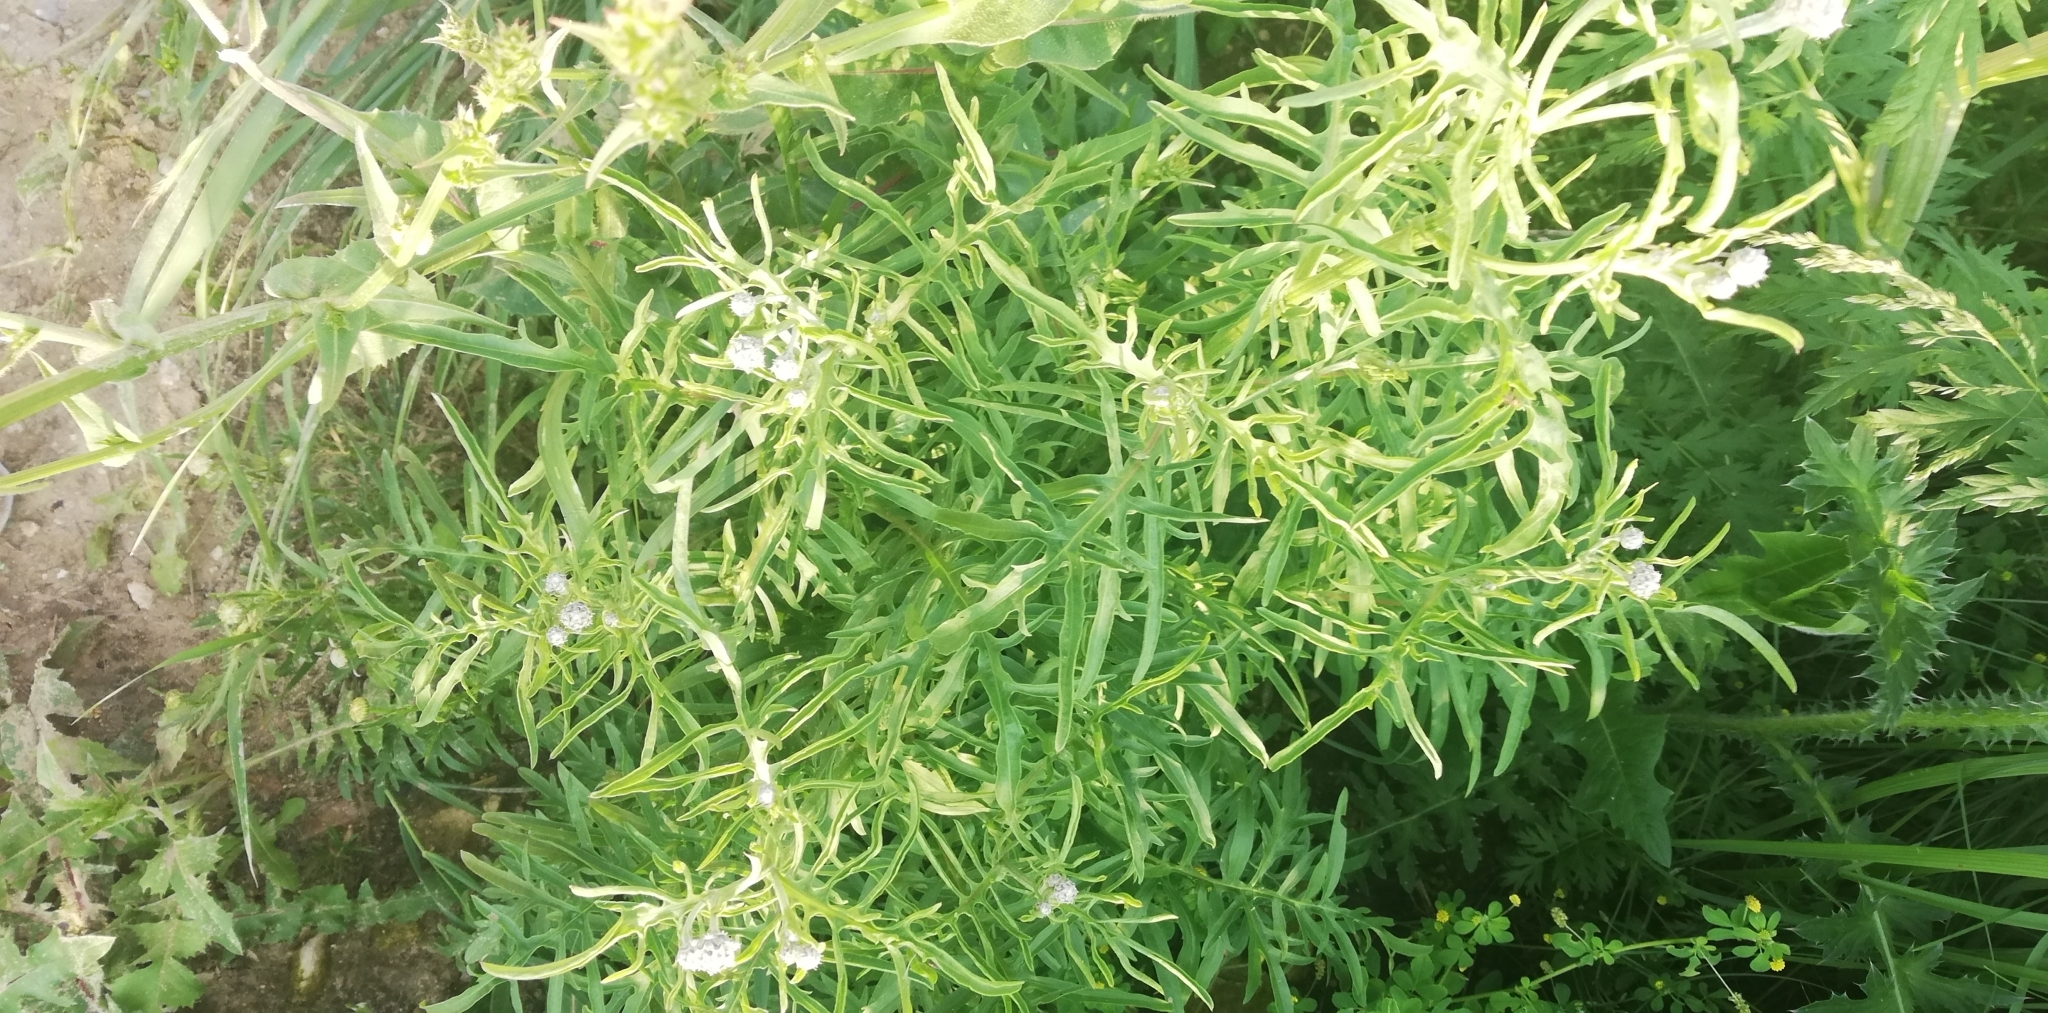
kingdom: Plantae
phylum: Tracheophyta
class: Magnoliopsida
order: Asterales
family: Asteraceae
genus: Centaurea
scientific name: Centaurea scabiosa
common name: Greater knapweed
